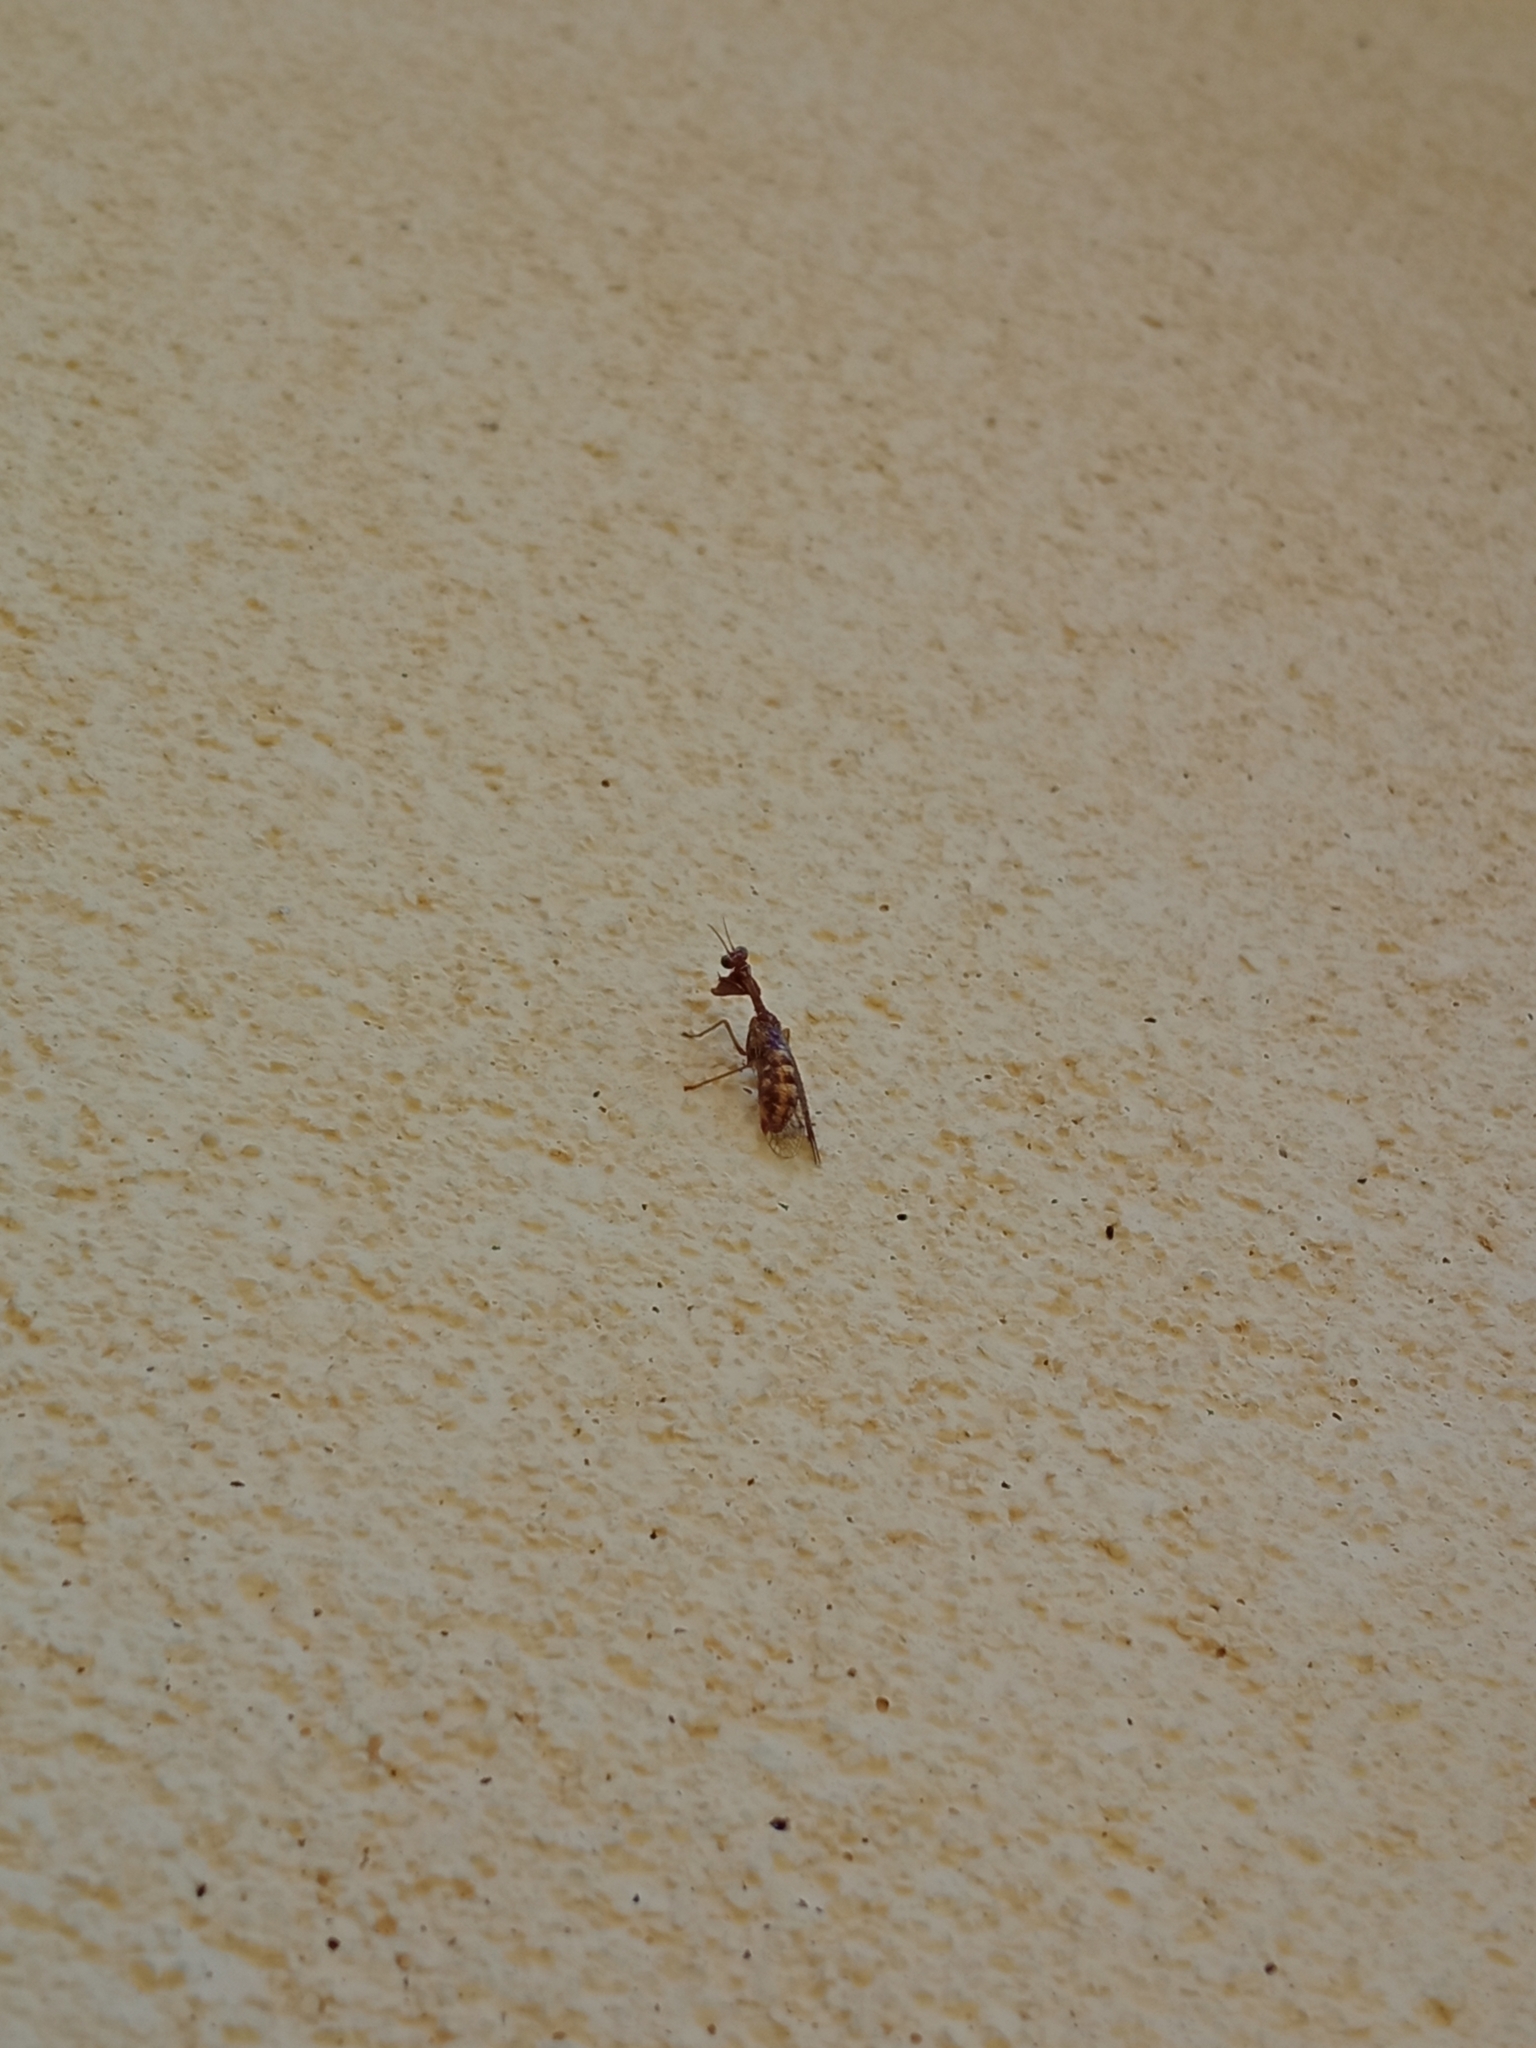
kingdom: Animalia
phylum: Arthropoda
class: Insecta
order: Neuroptera
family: Mantispidae
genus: Mantispa
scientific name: Mantispa styriaca
